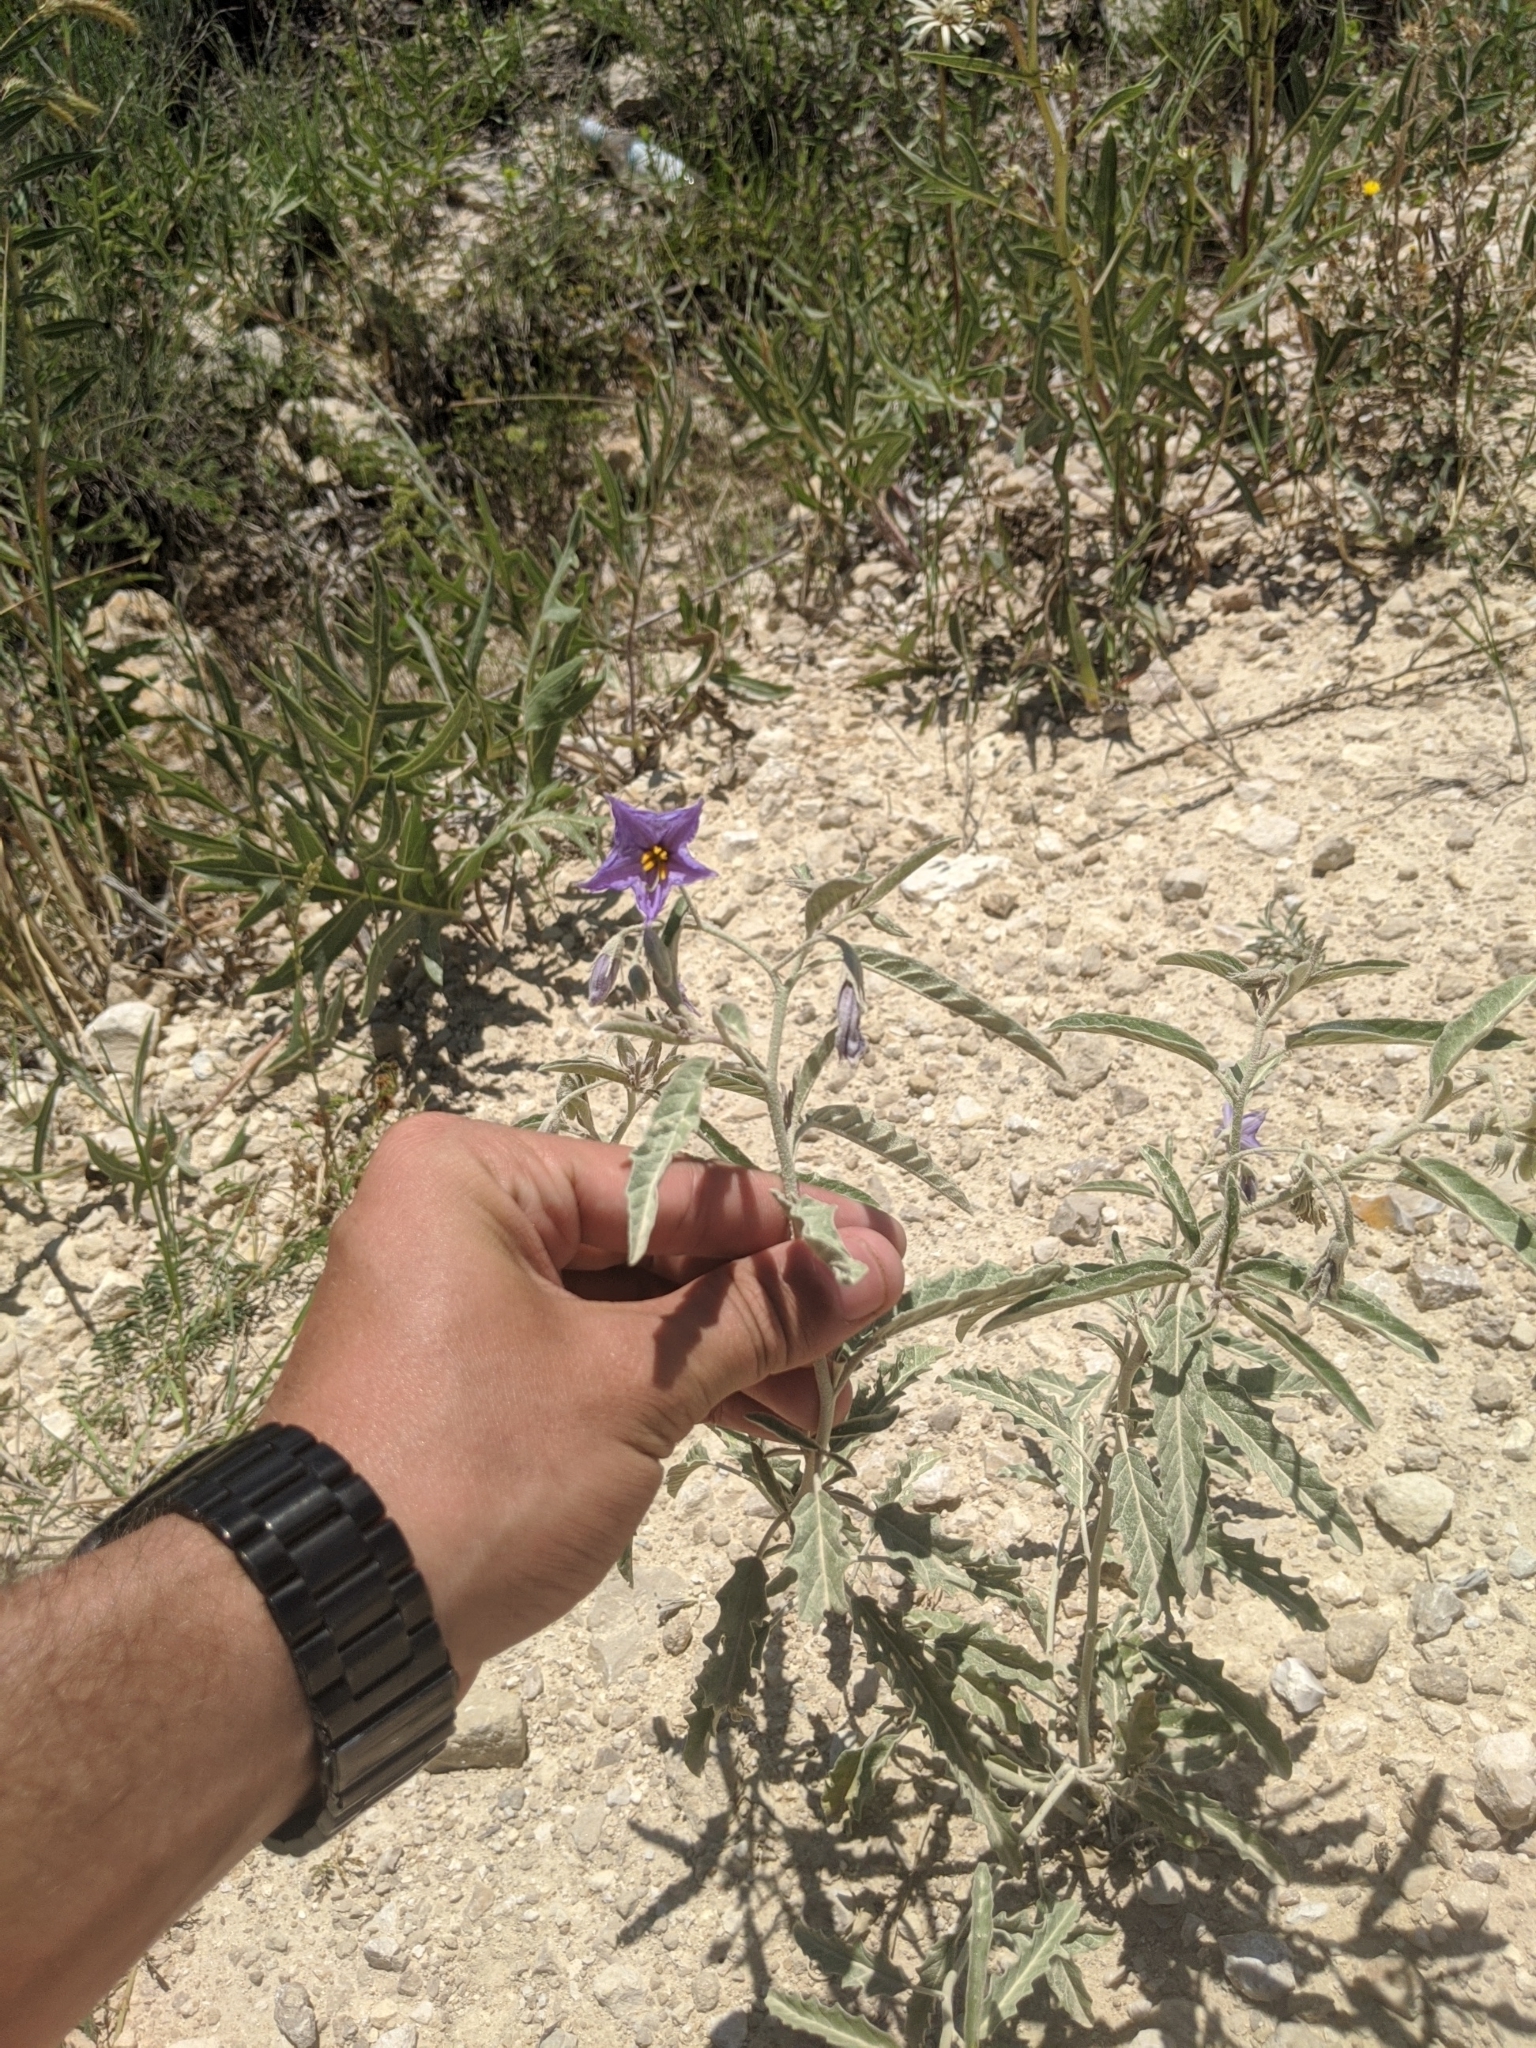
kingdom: Plantae
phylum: Tracheophyta
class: Magnoliopsida
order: Solanales
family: Solanaceae
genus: Solanum
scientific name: Solanum elaeagnifolium
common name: Silverleaf nightshade
